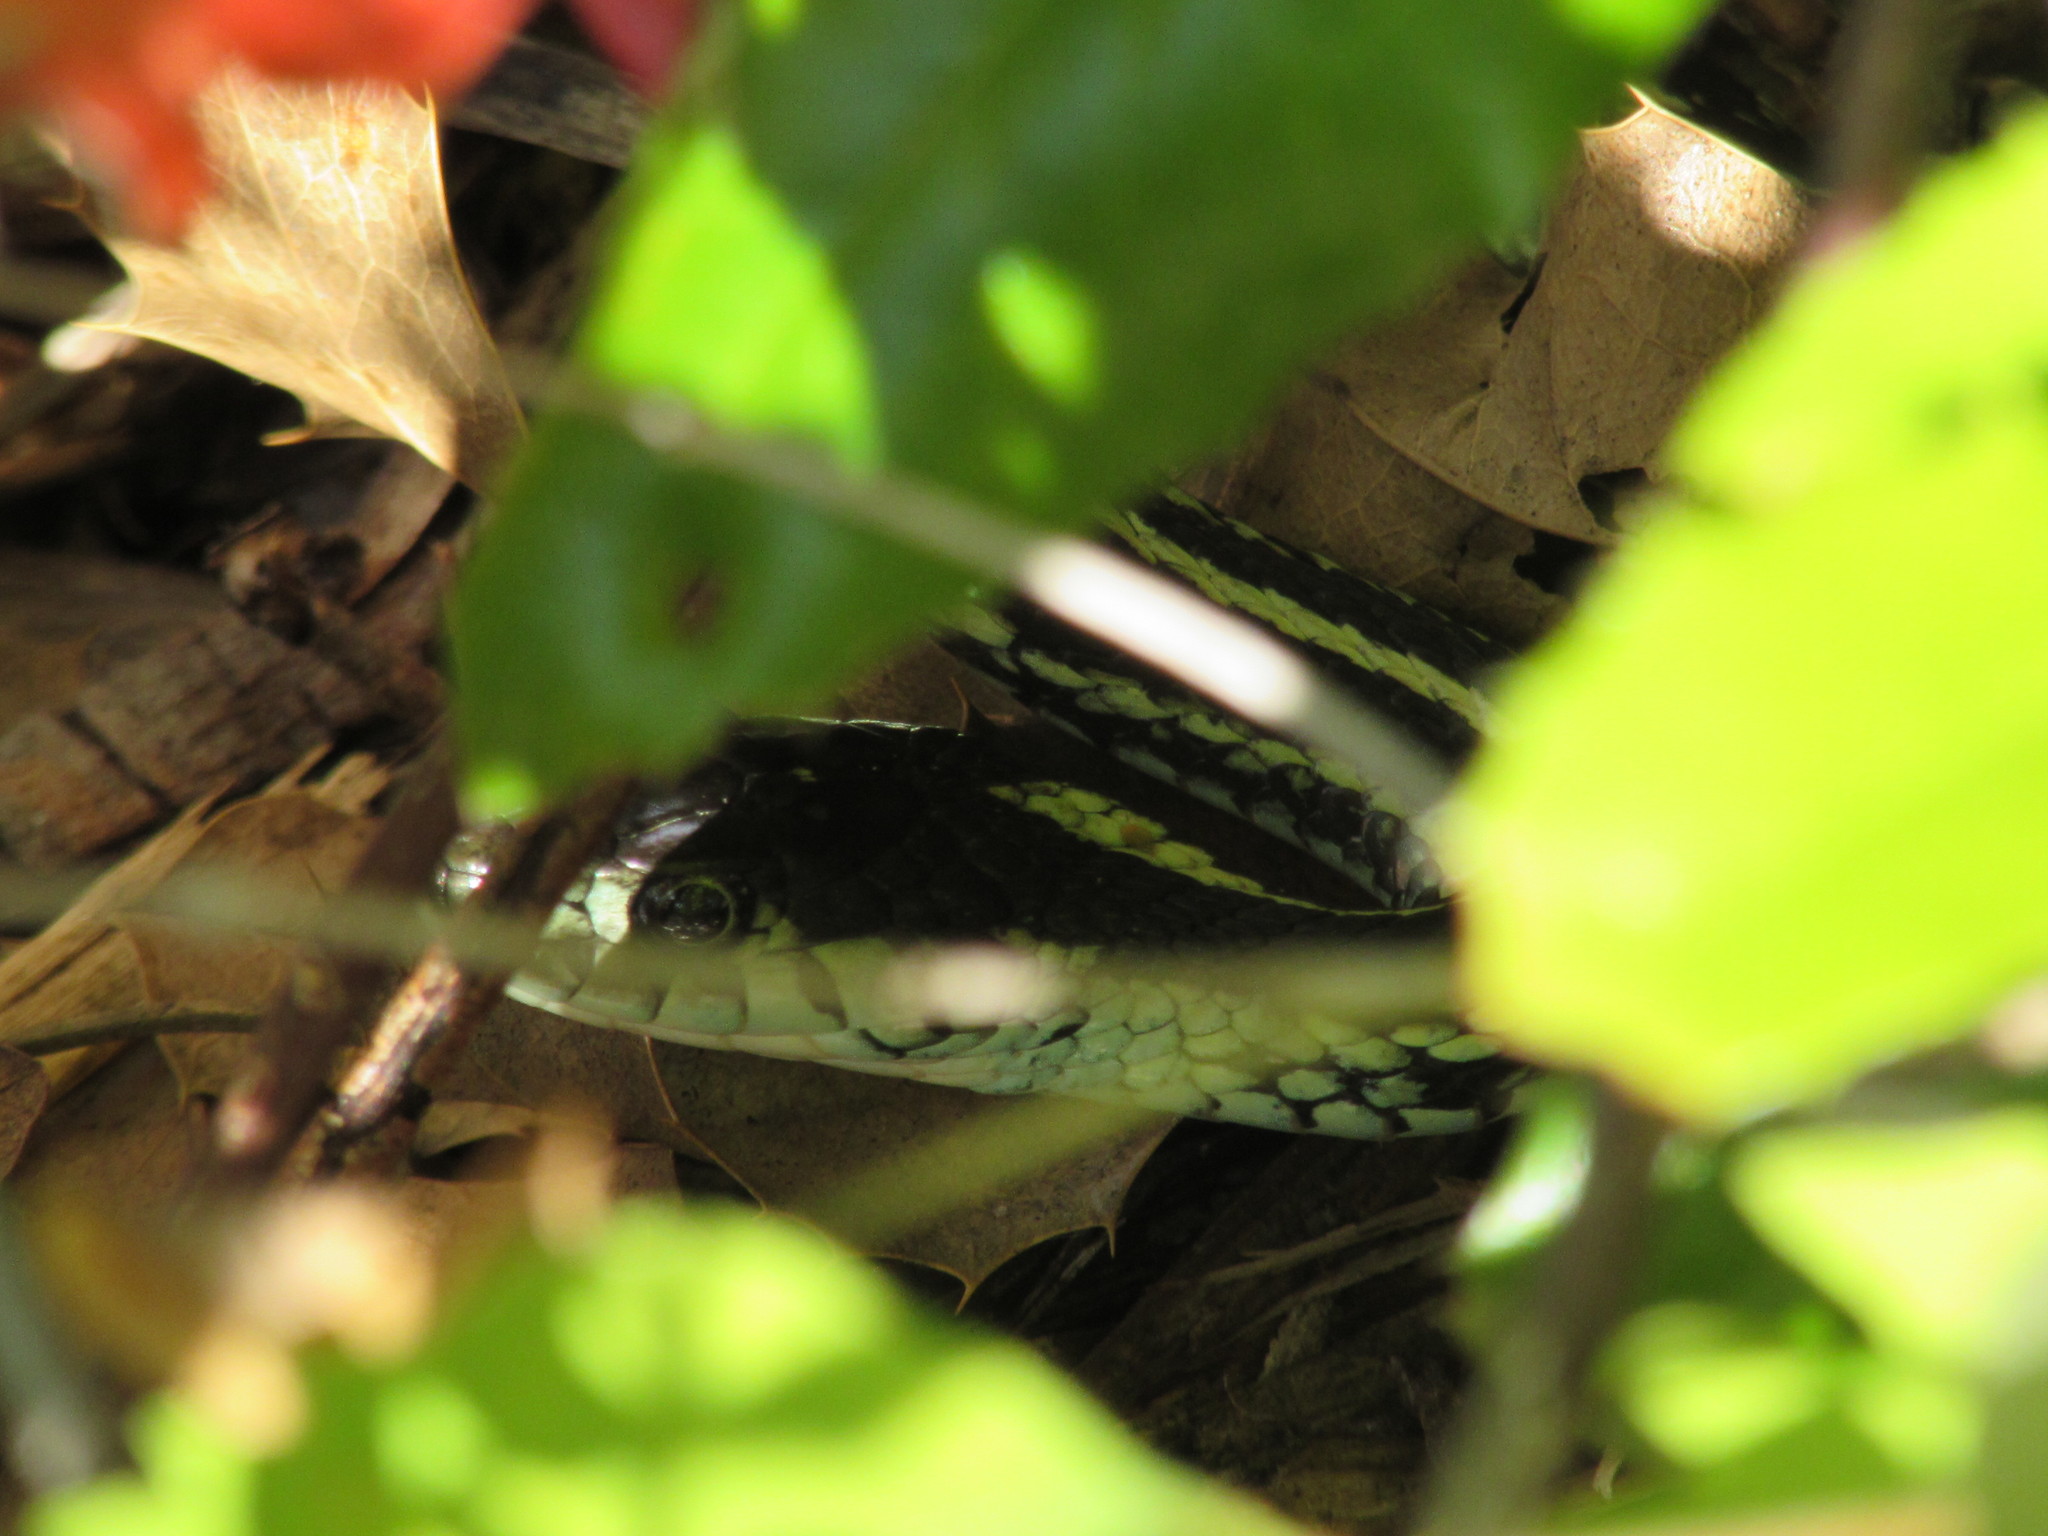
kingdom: Animalia
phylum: Chordata
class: Squamata
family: Colubridae
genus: Thamnophis
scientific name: Thamnophis sirtalis
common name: Common garter snake
